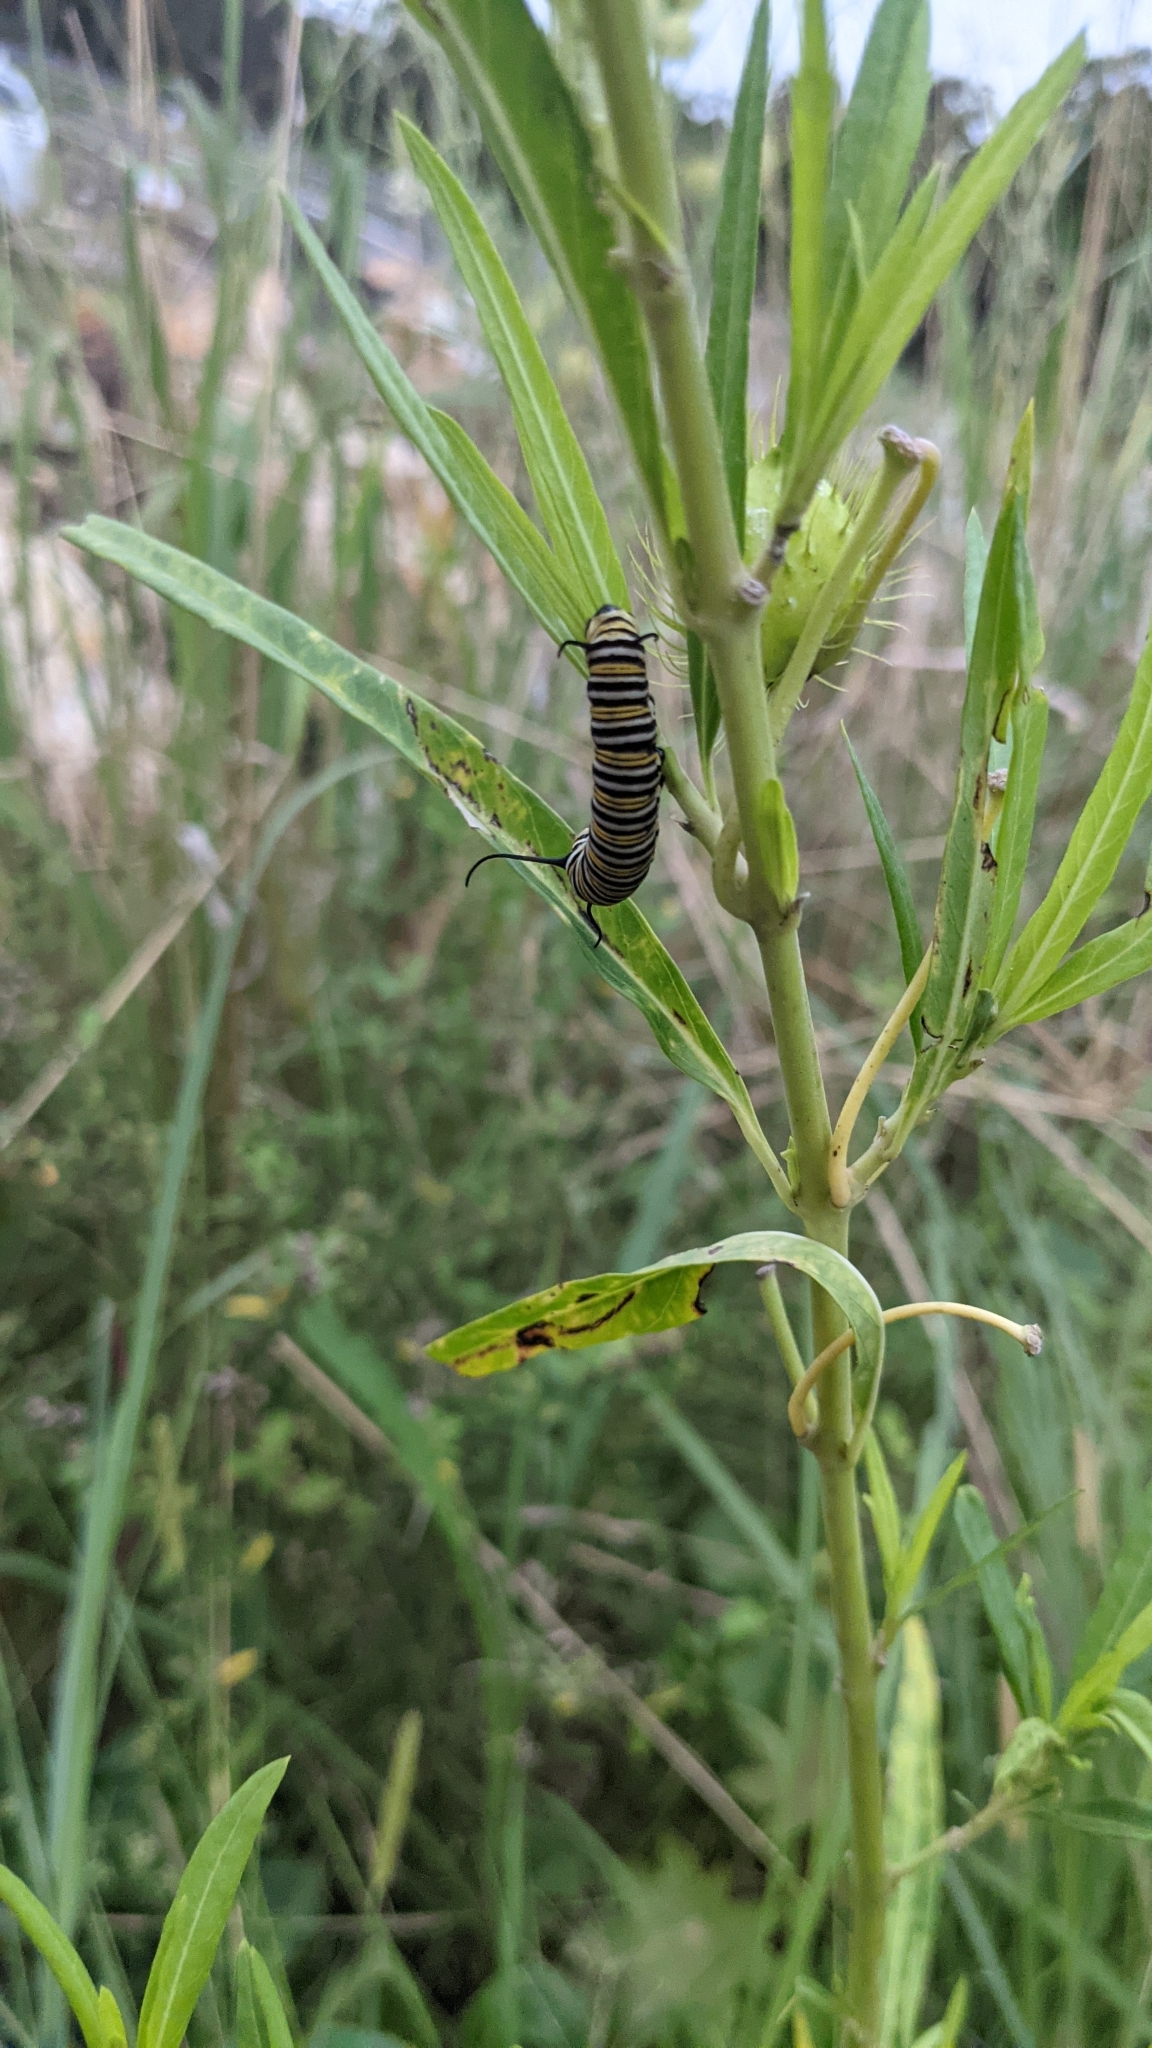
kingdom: Animalia
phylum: Arthropoda
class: Insecta
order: Lepidoptera
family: Nymphalidae
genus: Danaus
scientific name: Danaus plexippus
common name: Monarch
